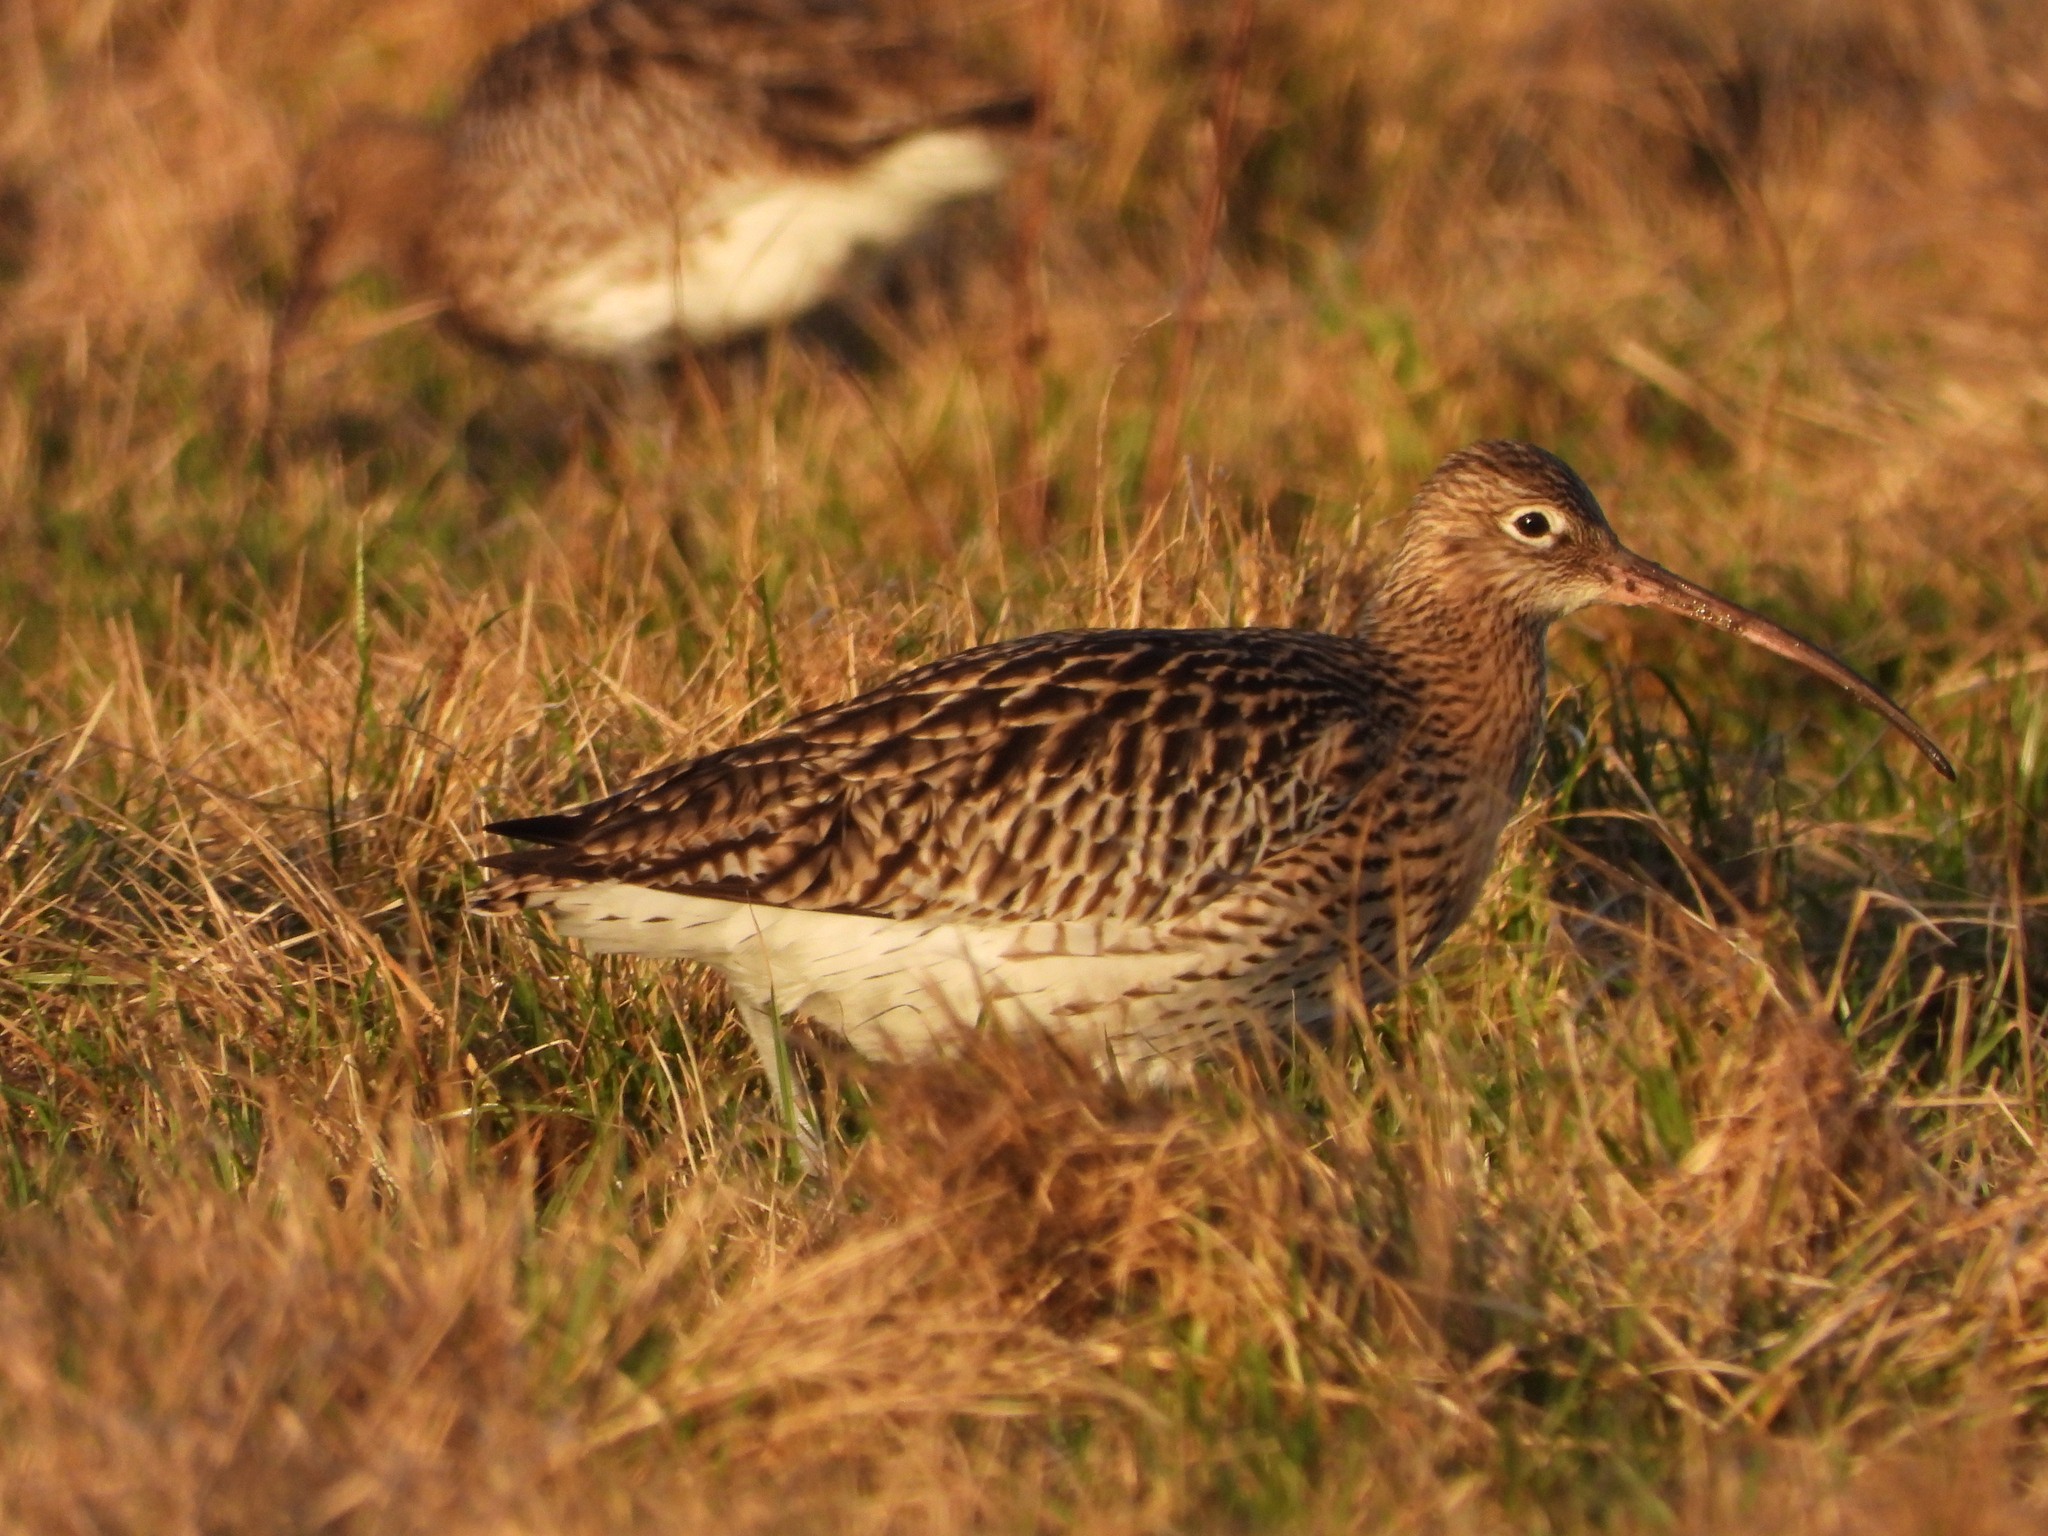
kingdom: Animalia
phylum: Chordata
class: Aves
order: Charadriiformes
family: Scolopacidae
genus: Numenius
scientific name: Numenius arquata
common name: Eurasian curlew
